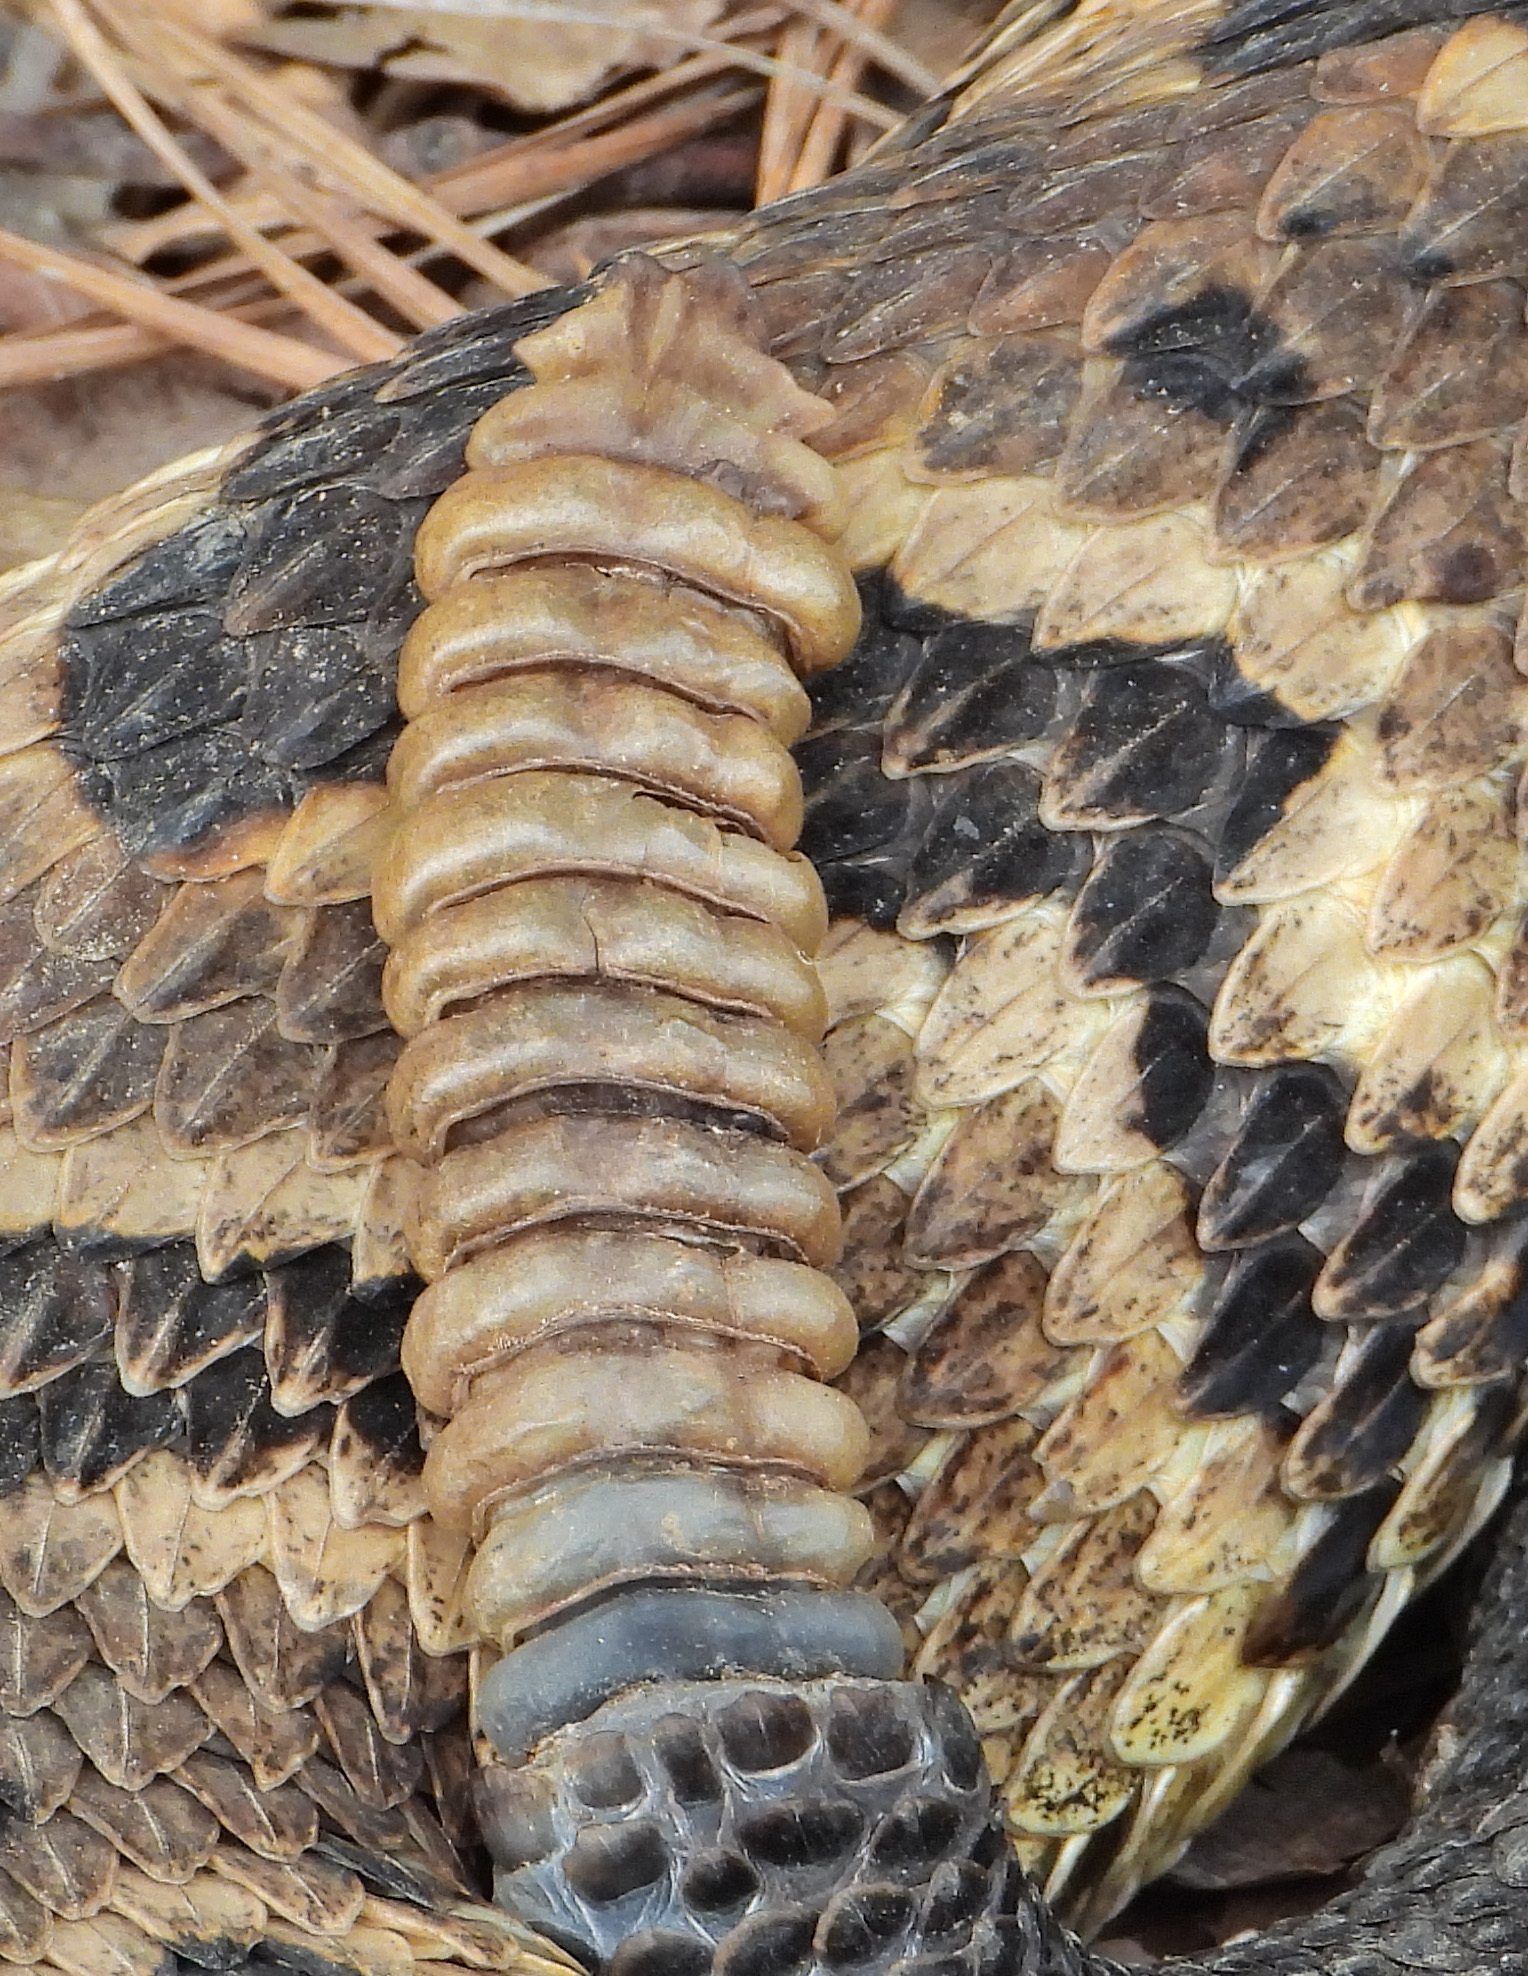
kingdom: Animalia
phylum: Chordata
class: Squamata
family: Viperidae
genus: Crotalus
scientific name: Crotalus horridus
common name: Timber rattlesnake
